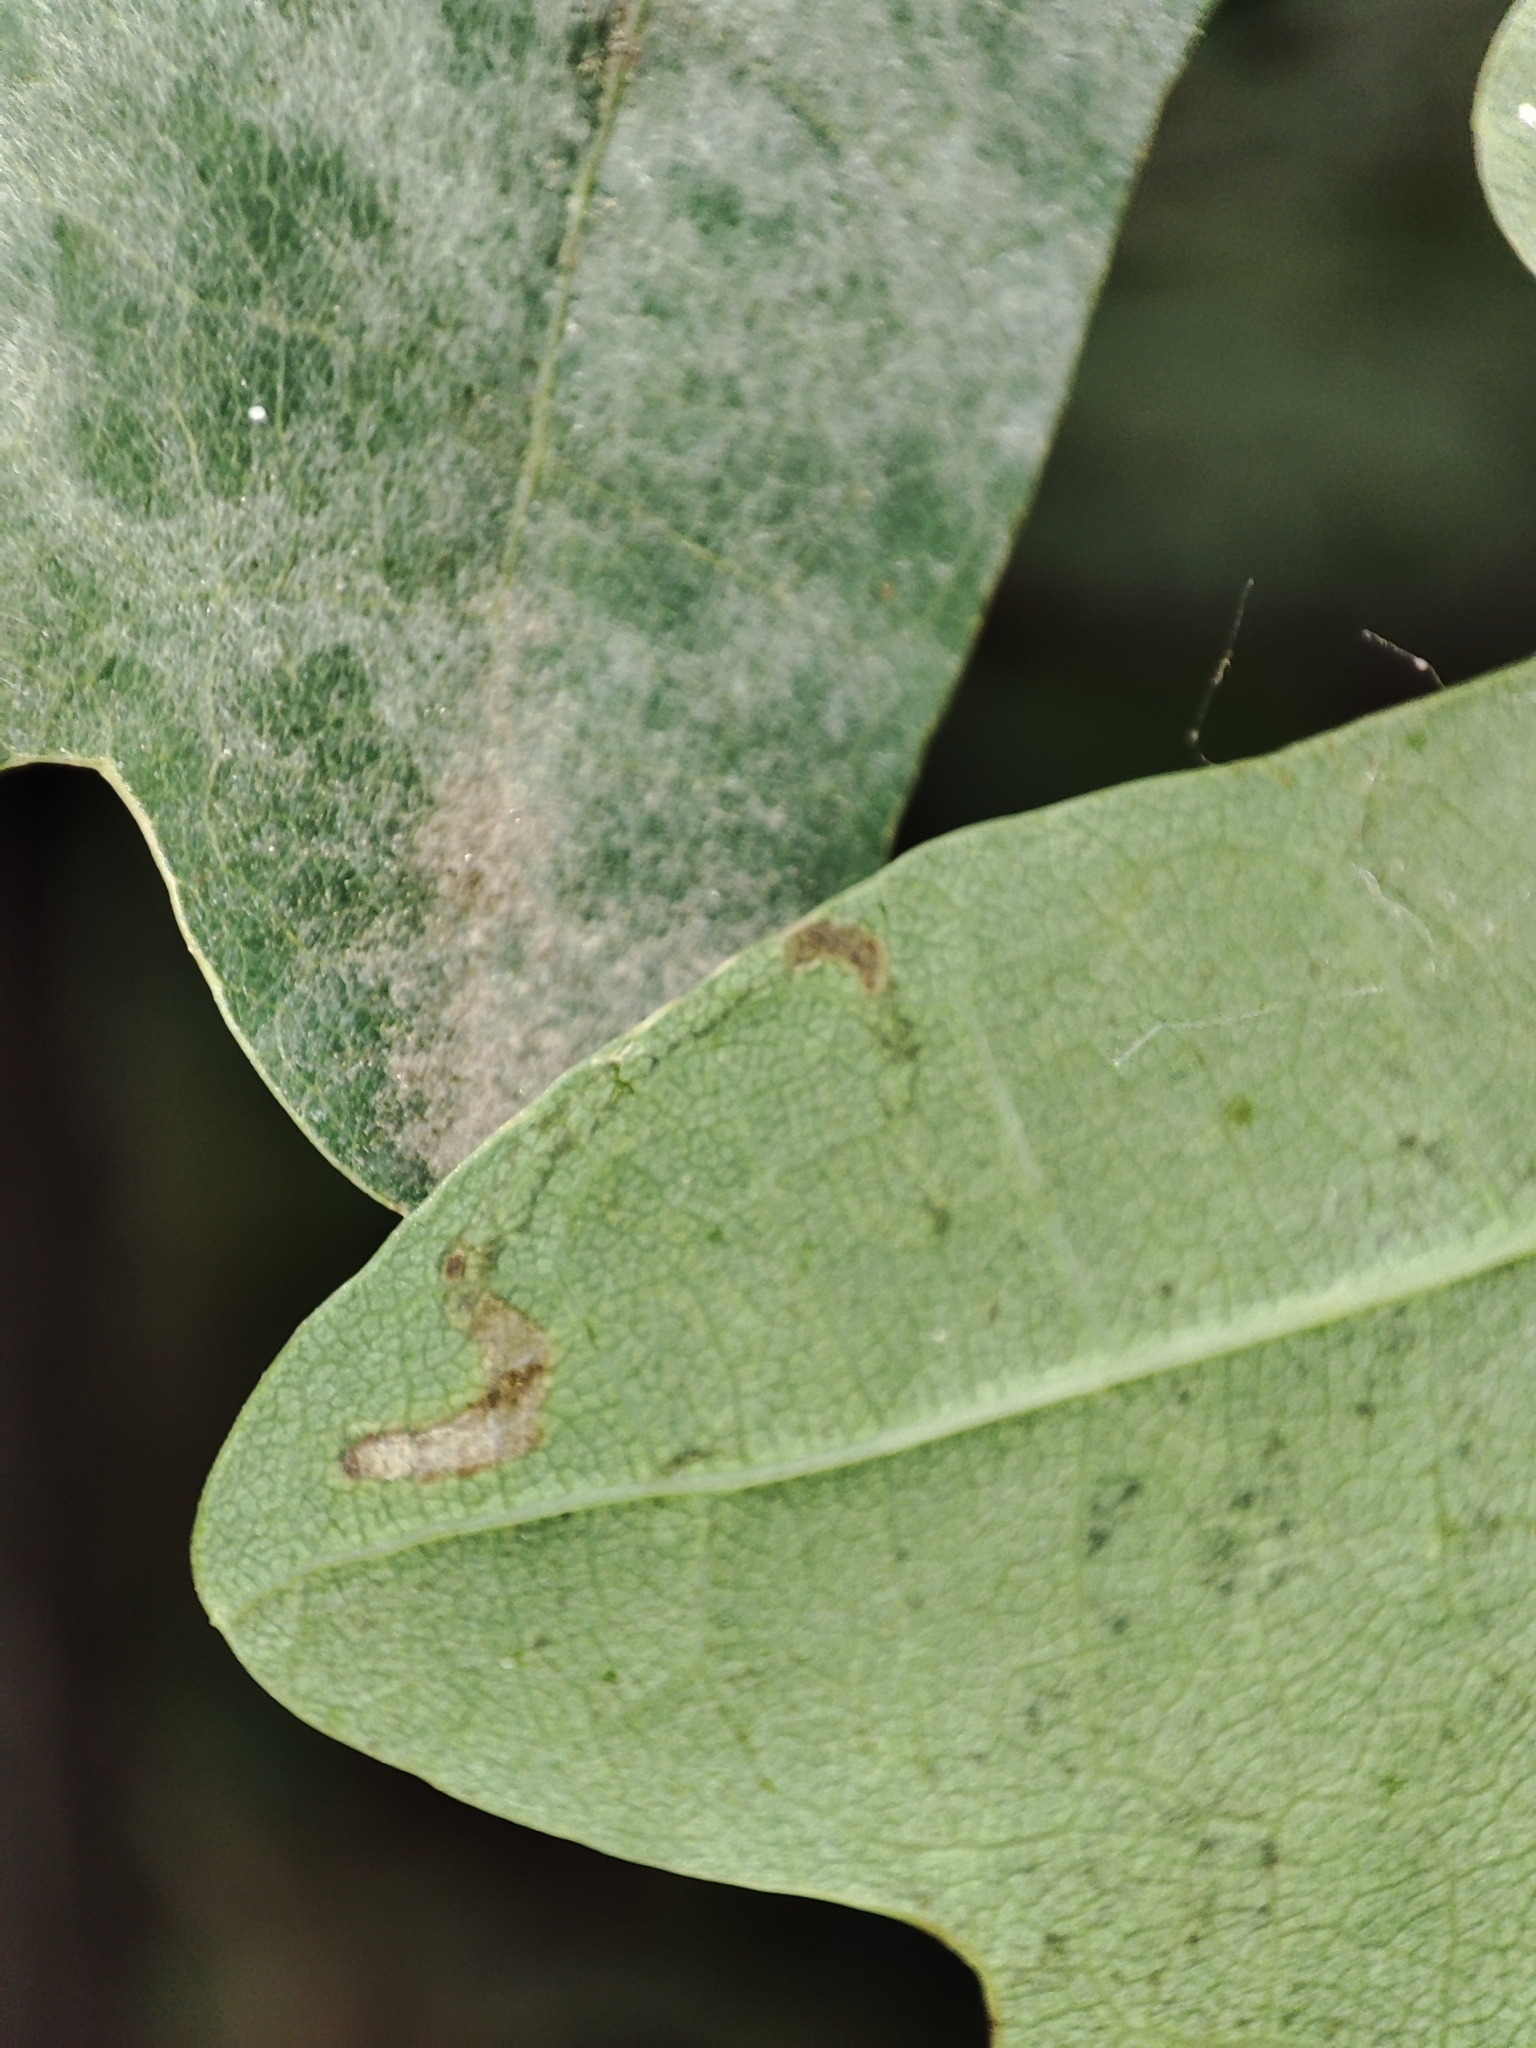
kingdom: Plantae
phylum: Tracheophyta
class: Magnoliopsida
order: Fagales
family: Fagaceae
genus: Quercus
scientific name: Quercus robur
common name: Pedunculate oak
